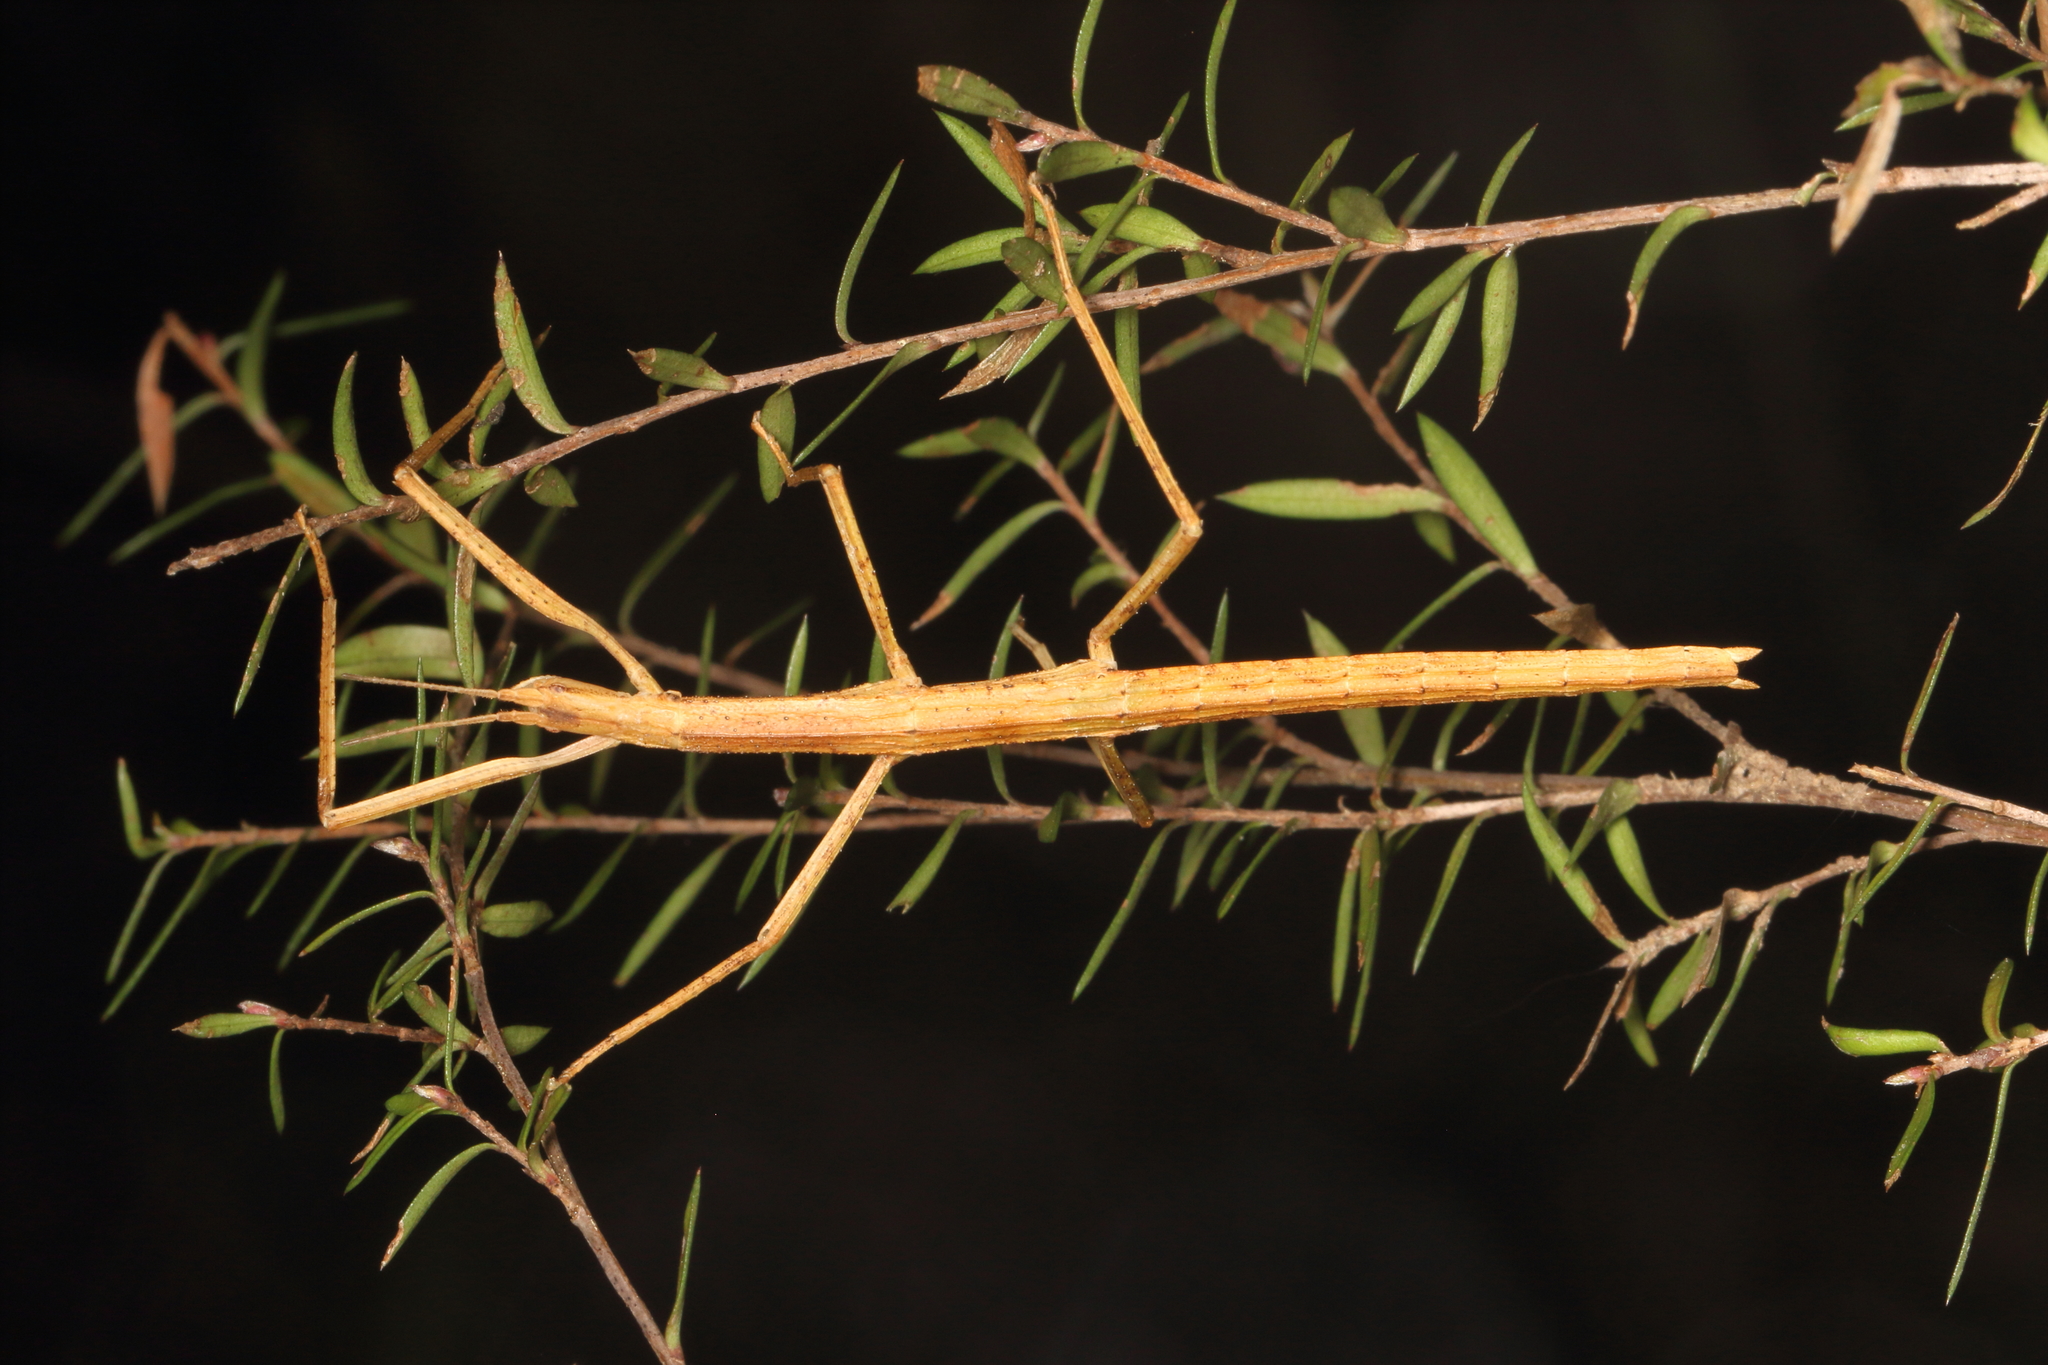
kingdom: Animalia
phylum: Arthropoda
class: Insecta
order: Phasmida
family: Phasmatidae
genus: Tectarchus
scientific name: Tectarchus huttoni
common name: The common ridge-backed stick insect
